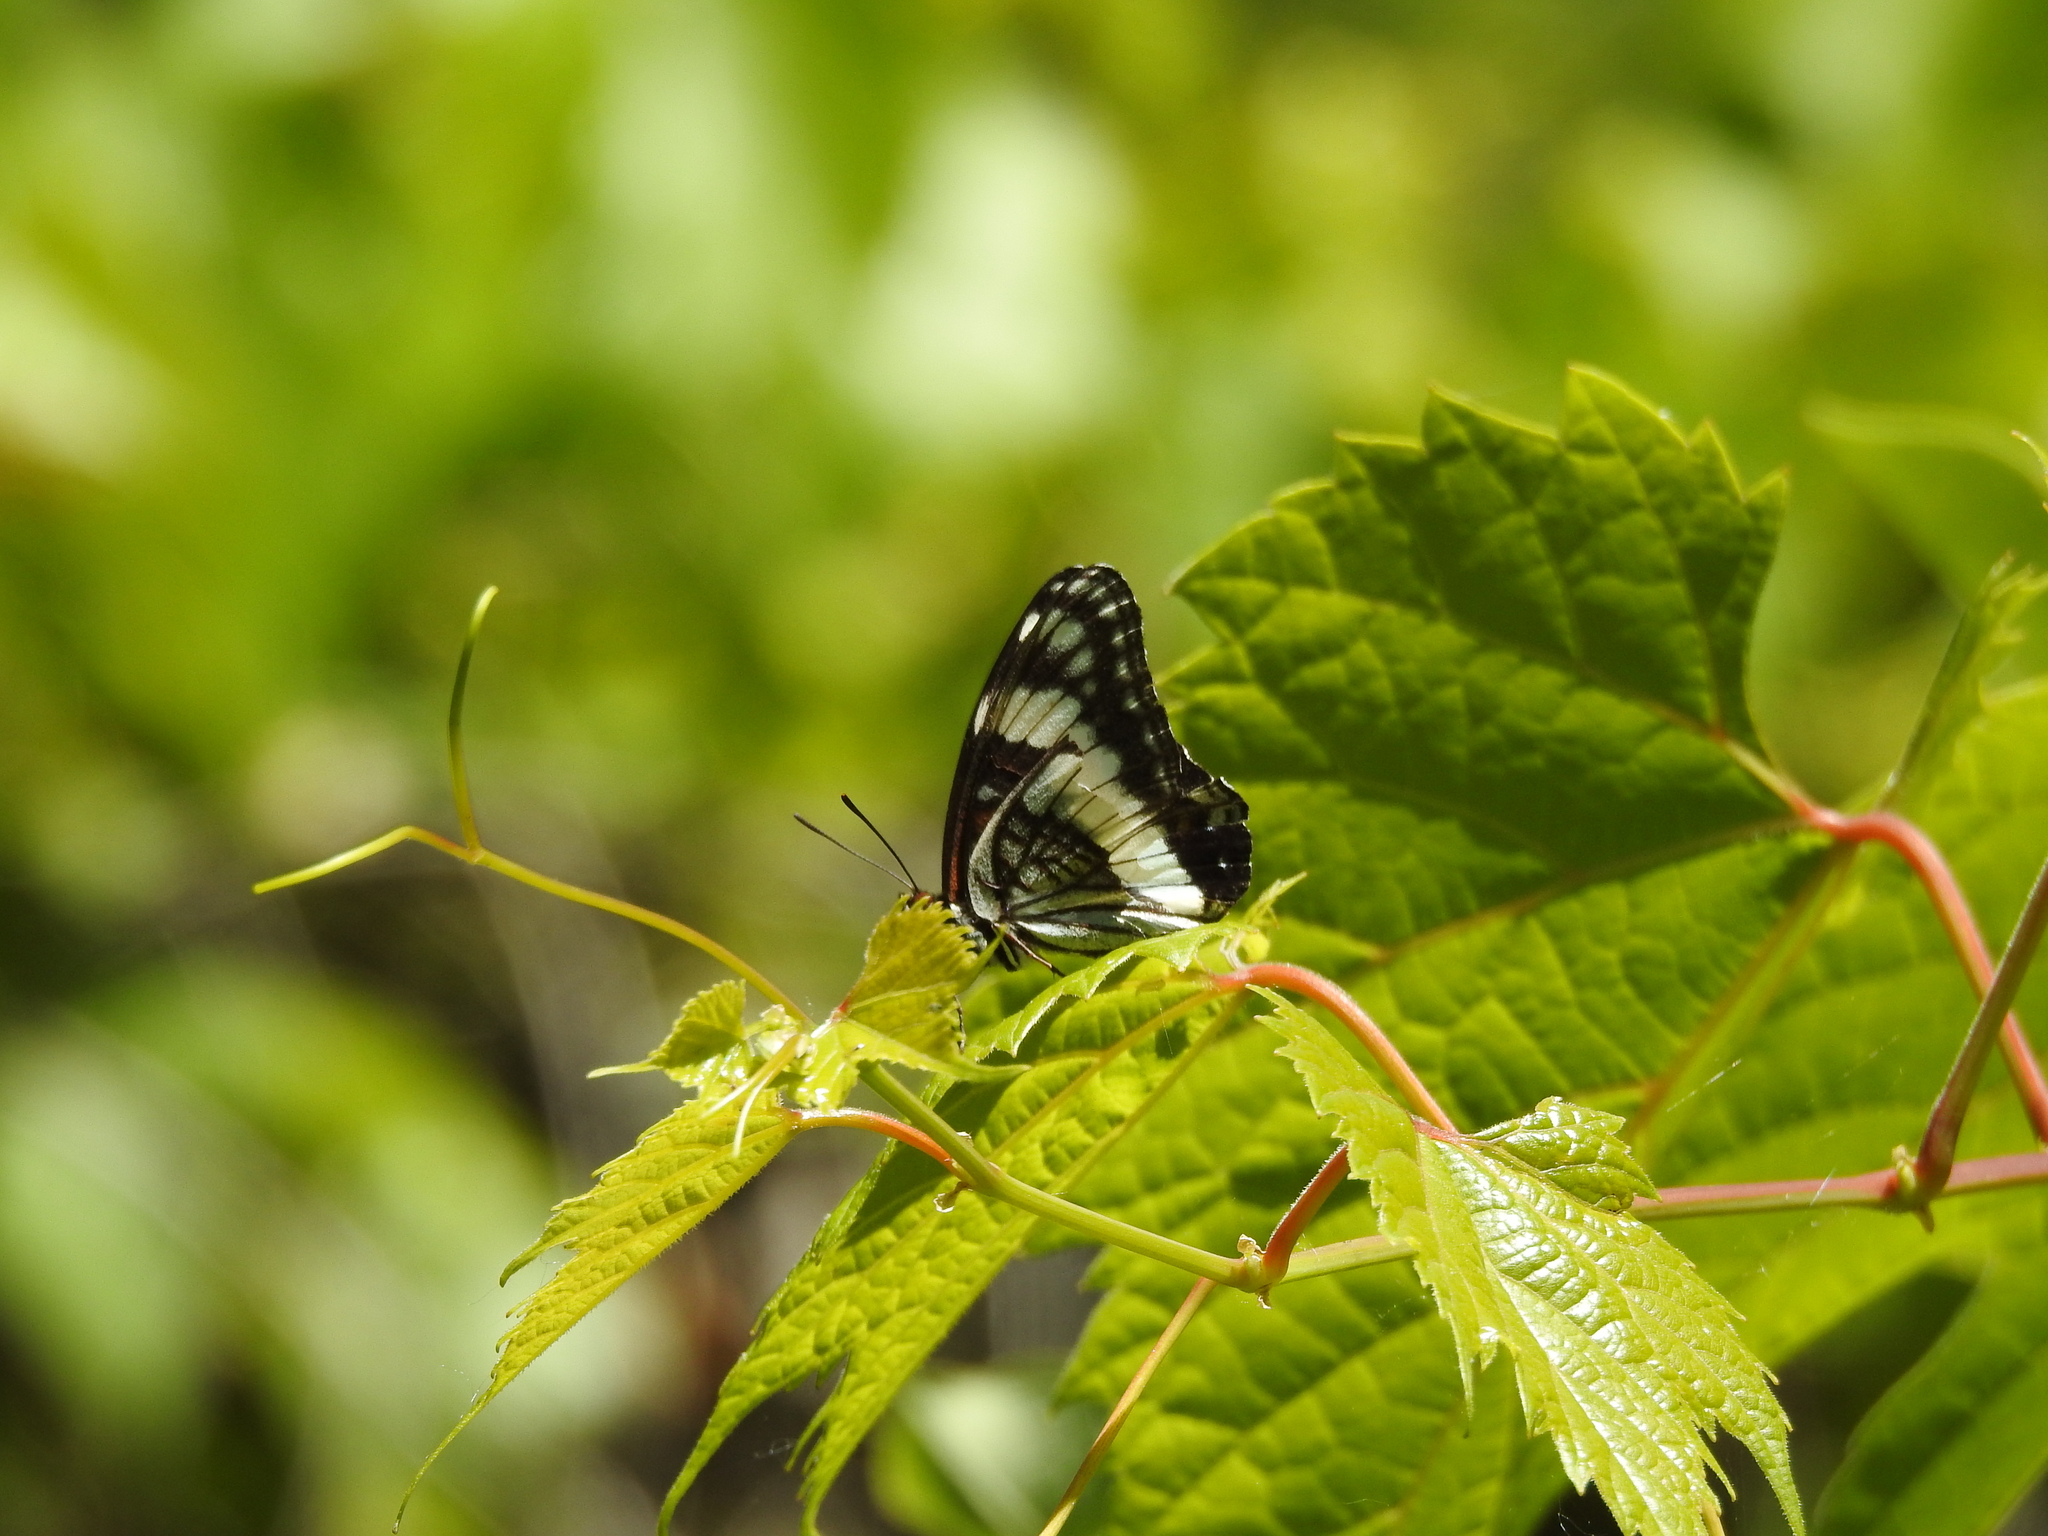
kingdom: Animalia
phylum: Arthropoda
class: Insecta
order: Lepidoptera
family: Nymphalidae
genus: Limenitis
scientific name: Limenitis weidemeyerii
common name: Weidemeyer's admiral
